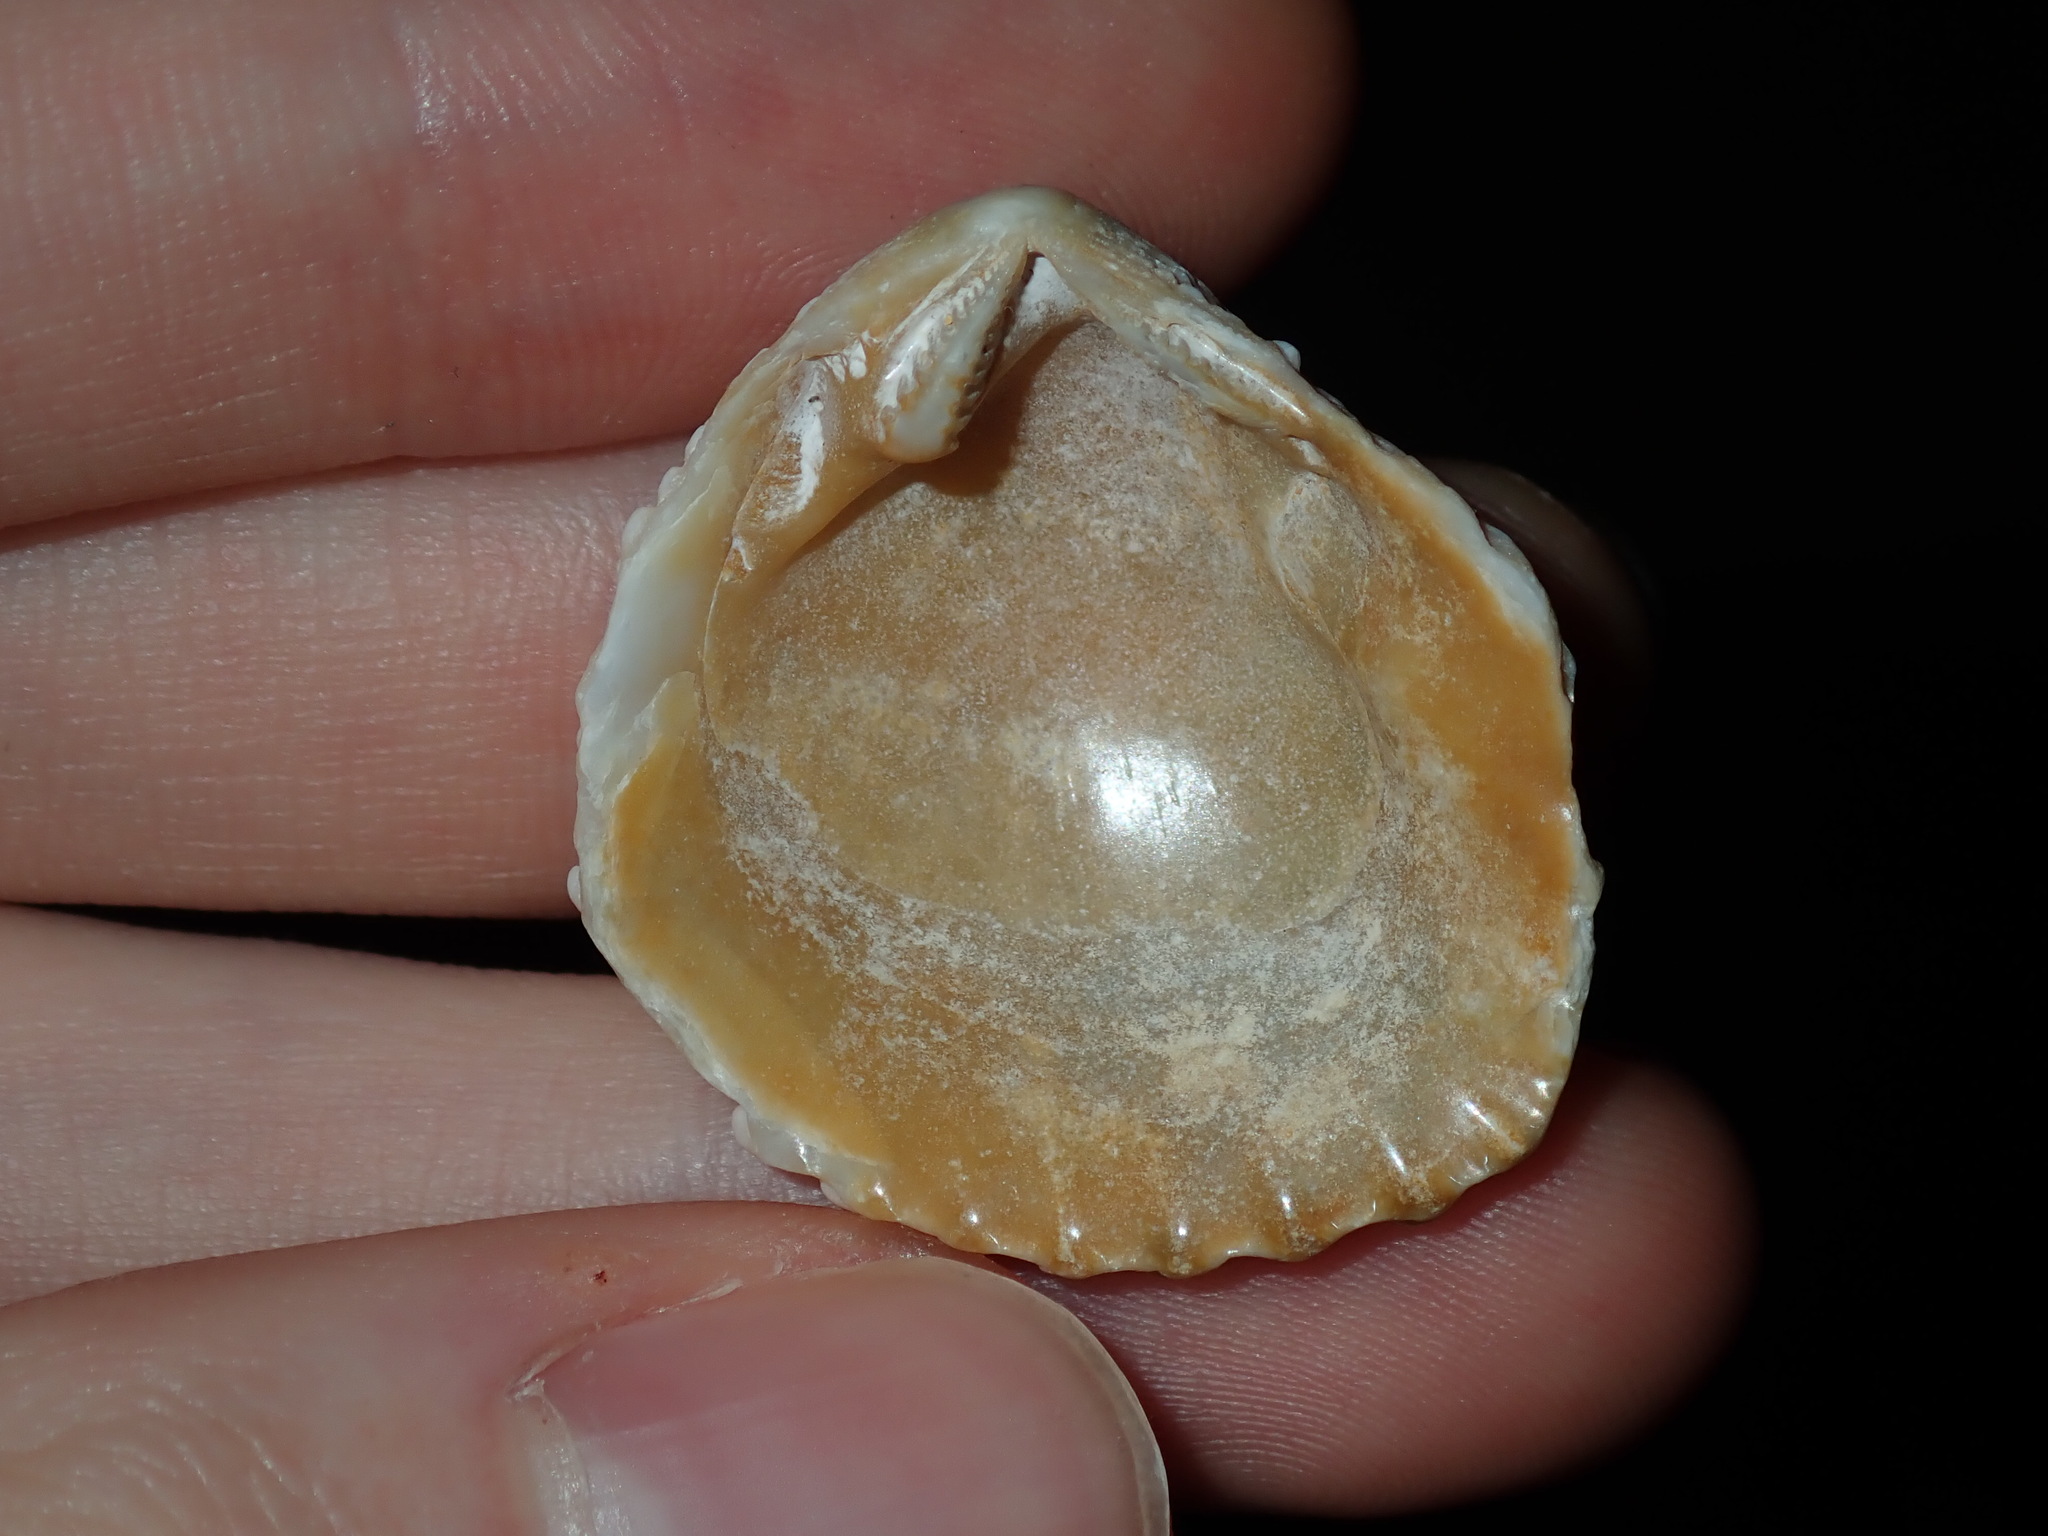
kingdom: Animalia
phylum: Mollusca
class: Bivalvia
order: Trigoniida
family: Trigoniidae
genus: Neotrigonia
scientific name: Neotrigonia lamarckii
